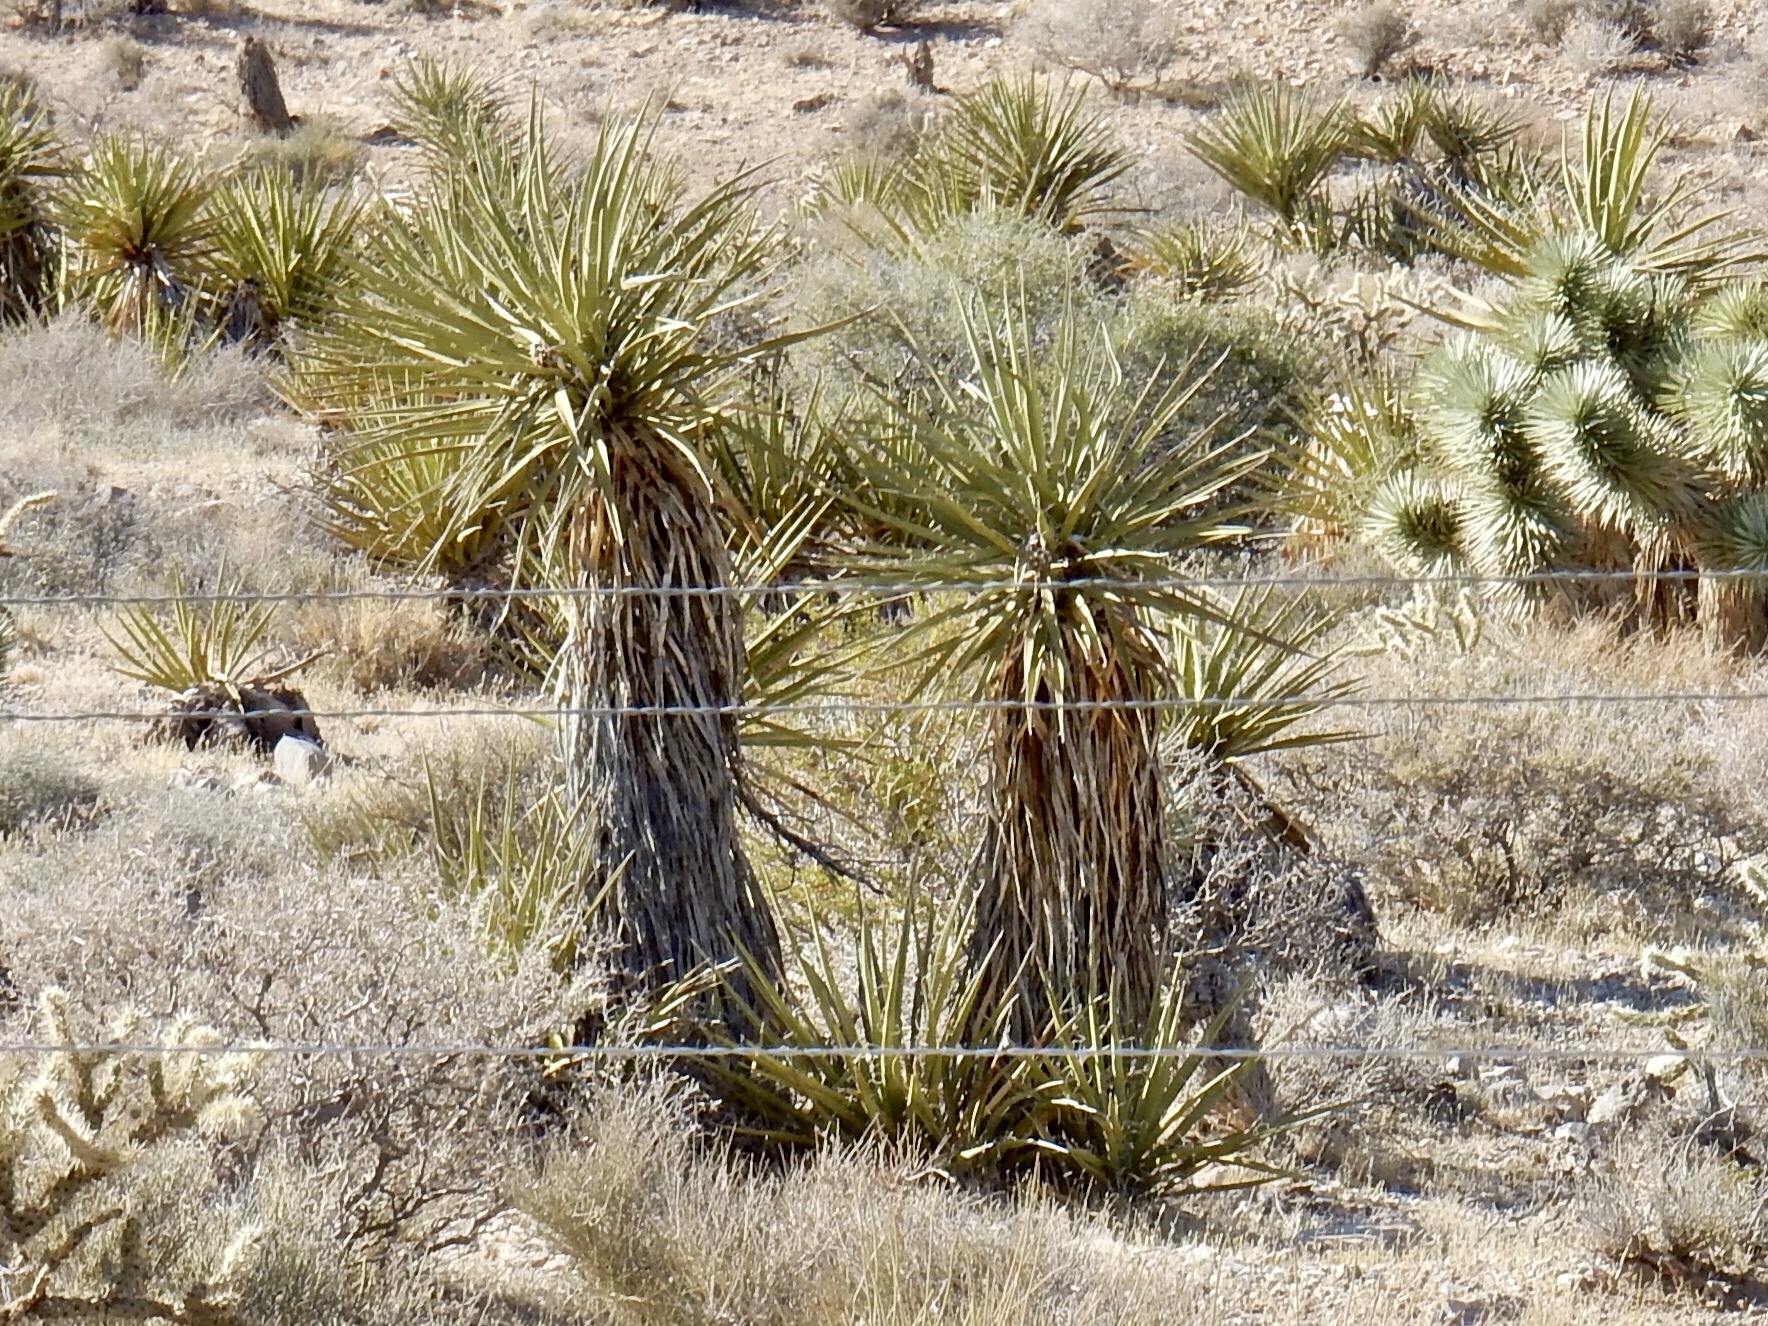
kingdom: Plantae
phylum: Tracheophyta
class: Liliopsida
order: Asparagales
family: Asparagaceae
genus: Yucca
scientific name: Yucca schidigera
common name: Mojave yucca
